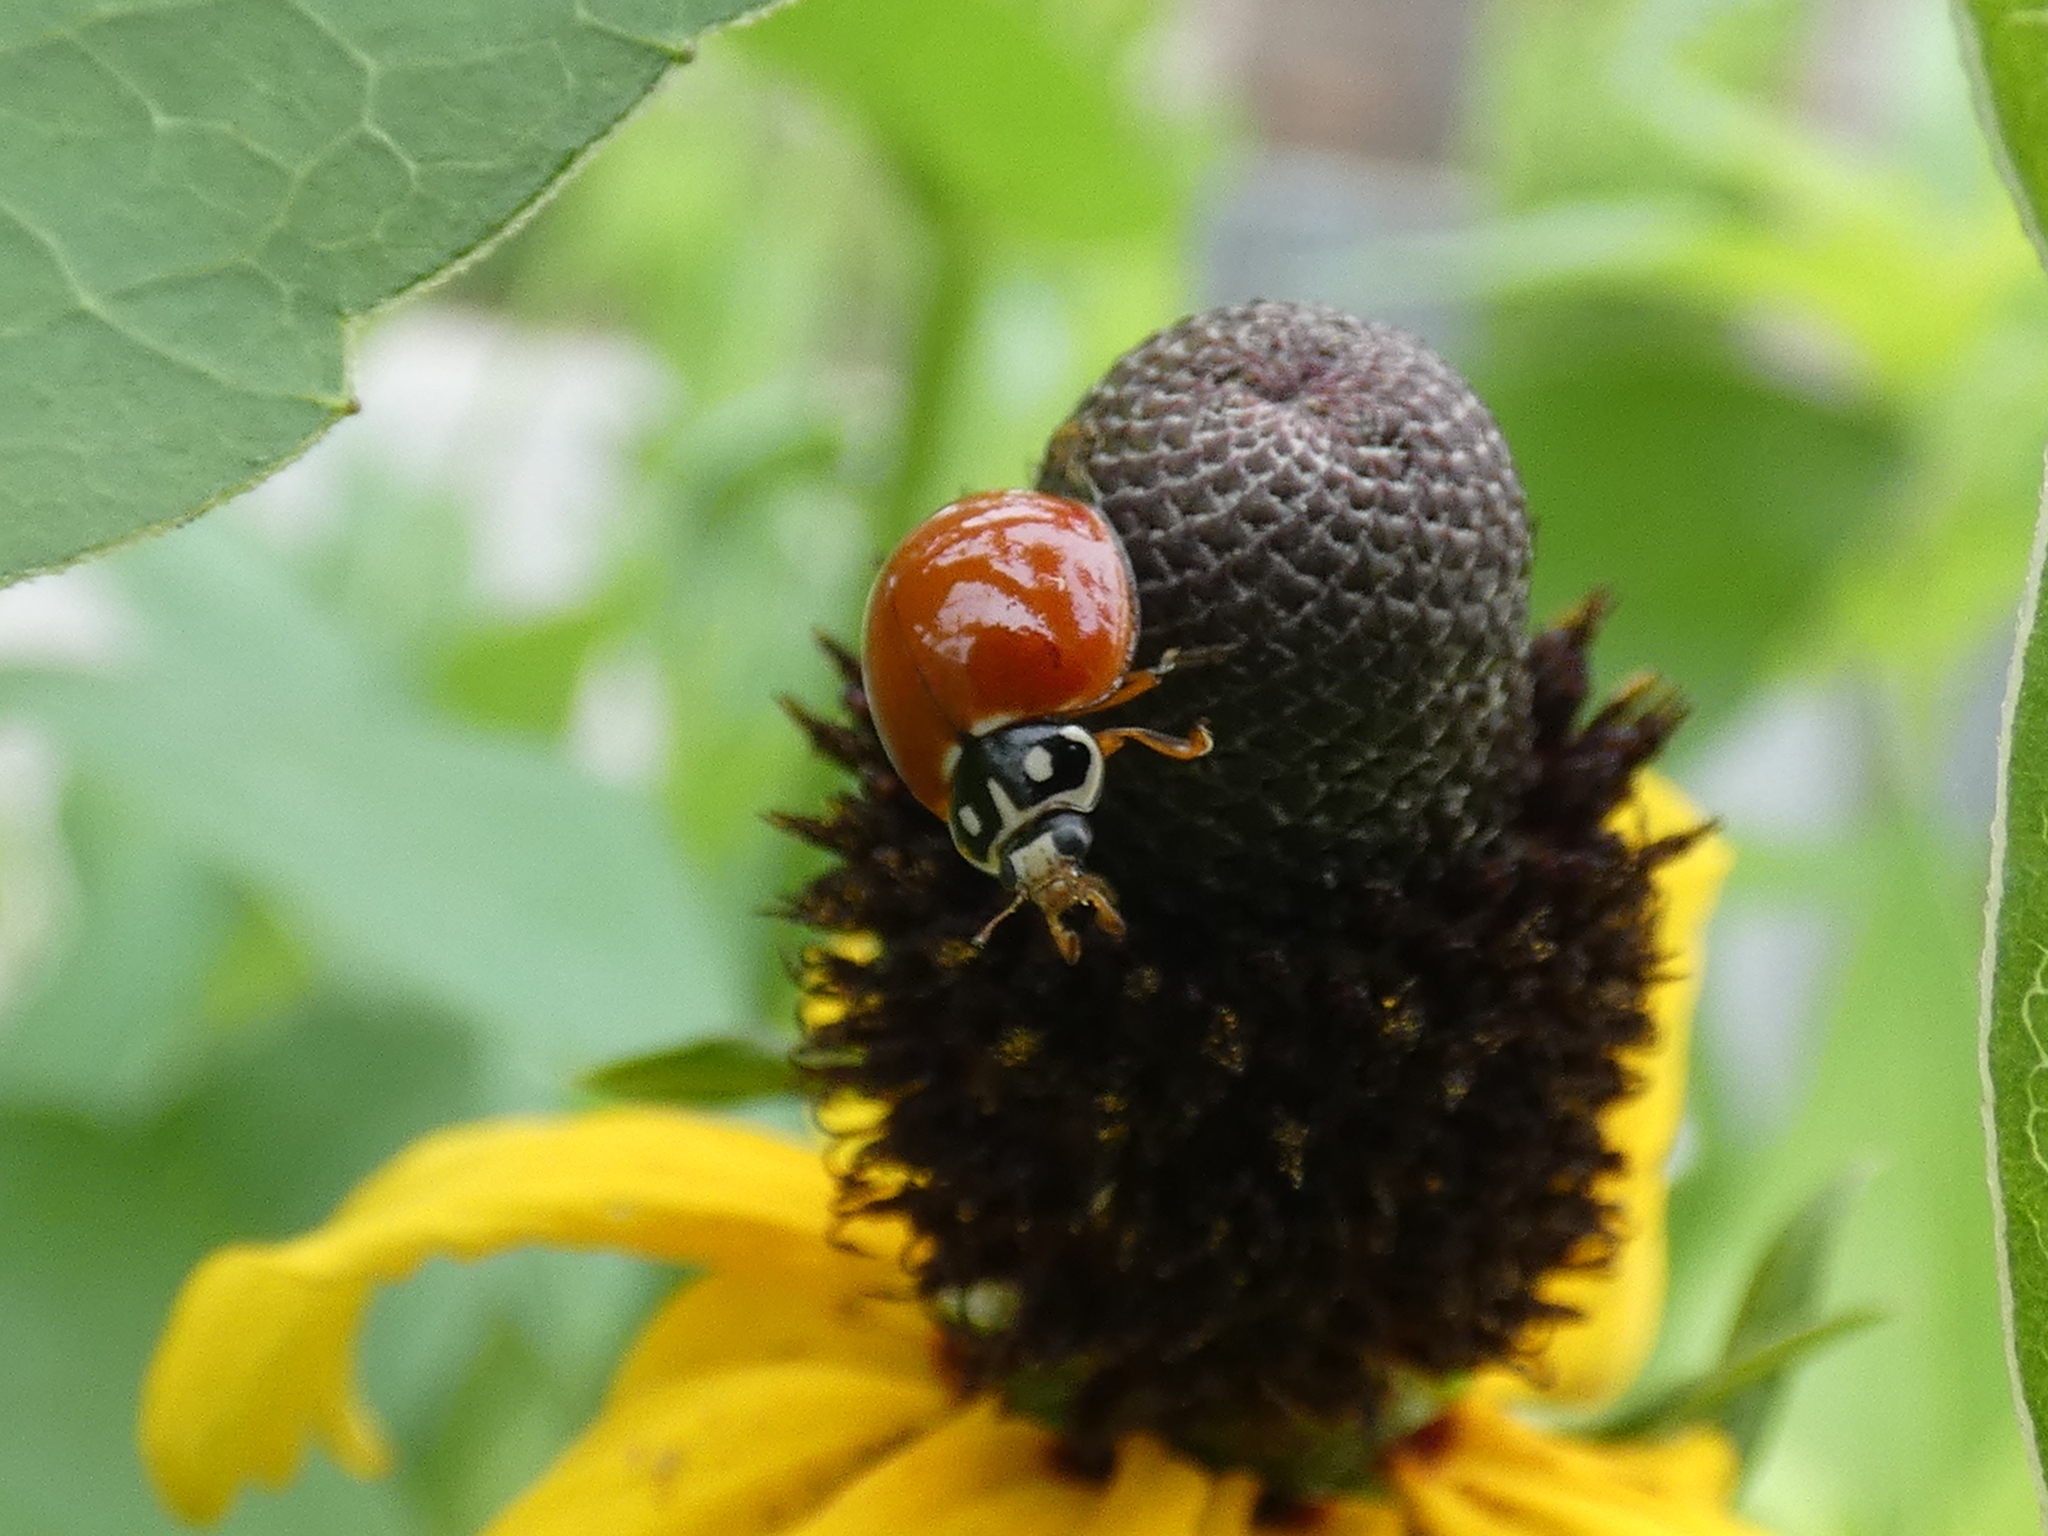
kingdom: Animalia
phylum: Arthropoda
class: Insecta
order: Coleoptera
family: Coccinellidae
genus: Cycloneda
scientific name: Cycloneda sanguinea
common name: Ladybird beetle
